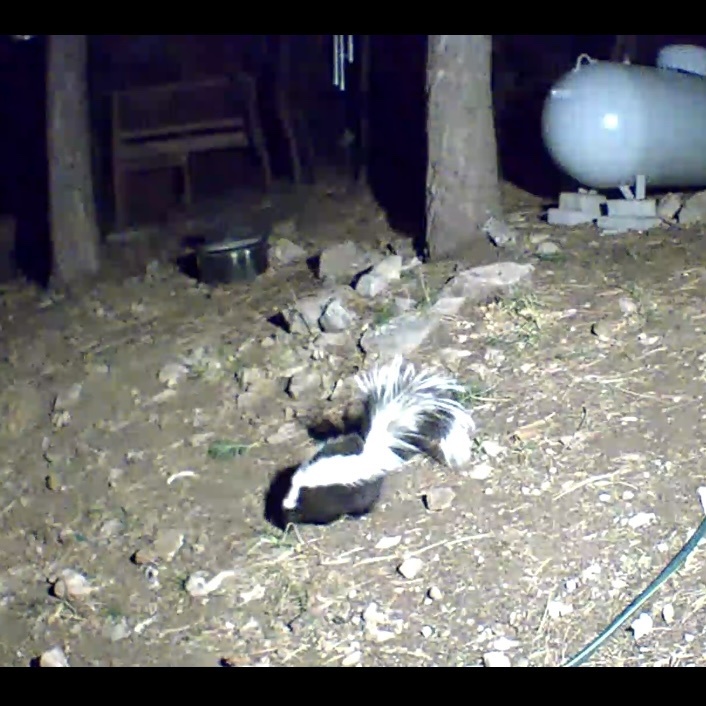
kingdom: Animalia
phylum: Chordata
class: Mammalia
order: Carnivora
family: Mephitidae
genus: Mephitis
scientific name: Mephitis mephitis
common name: Striped skunk
